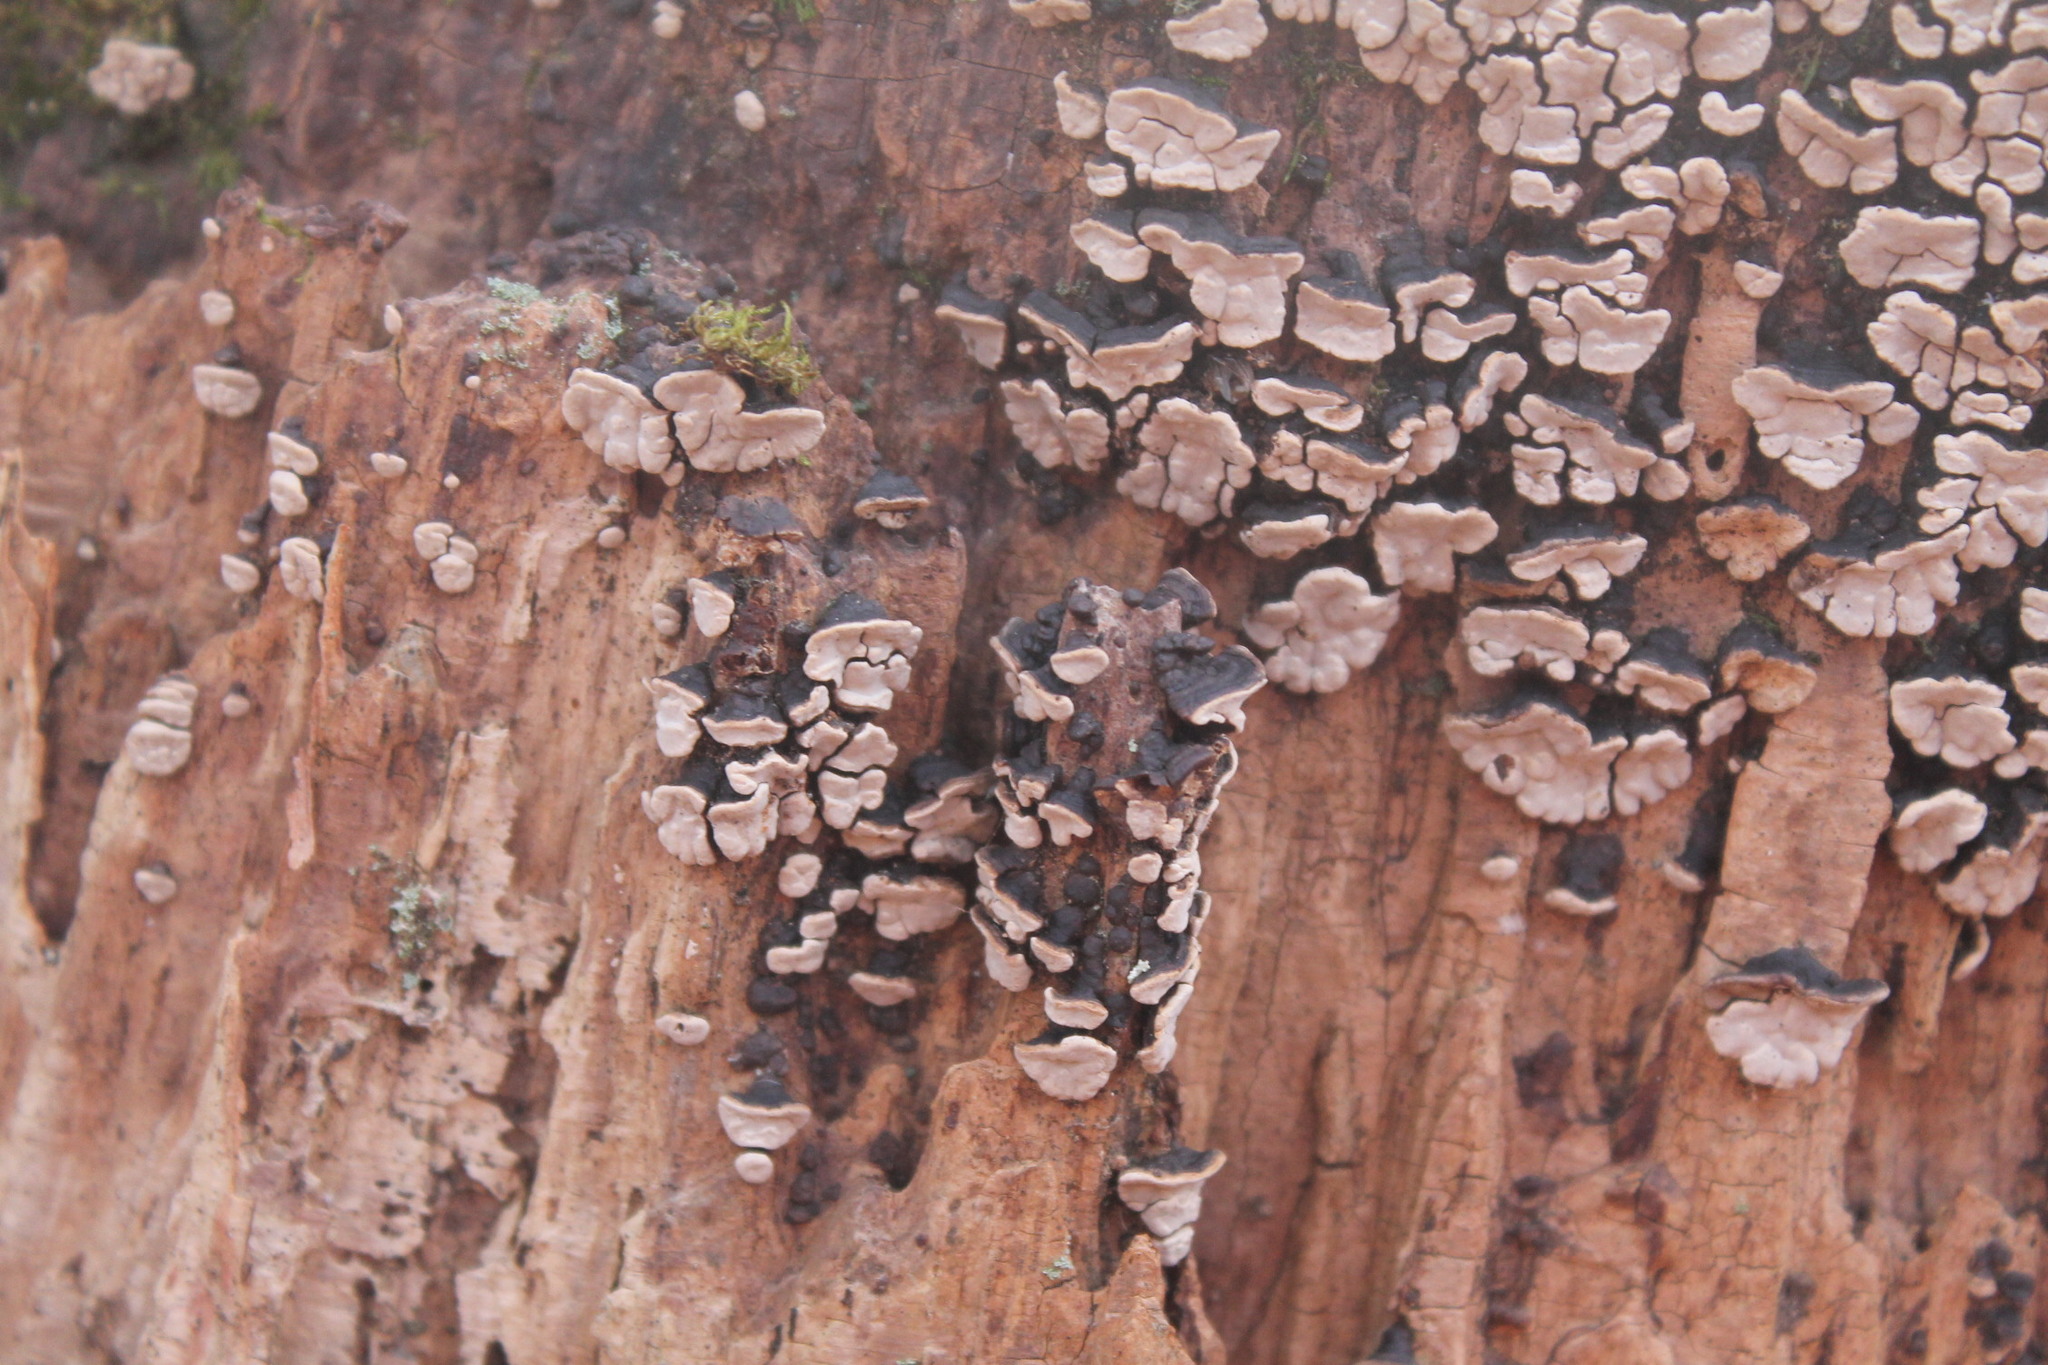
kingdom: Fungi
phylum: Basidiomycota
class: Agaricomycetes
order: Russulales
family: Stereaceae
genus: Xylobolus
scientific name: Xylobolus frustulatus
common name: Ceramic parchment
